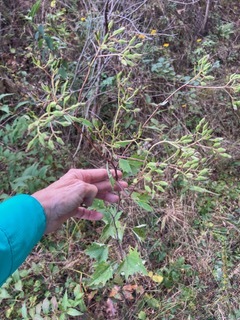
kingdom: Plantae
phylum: Tracheophyta
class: Magnoliopsida
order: Asterales
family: Asteraceae
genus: Arnoglossum
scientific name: Arnoglossum atriplicifolium
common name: Pale indian-plantain
